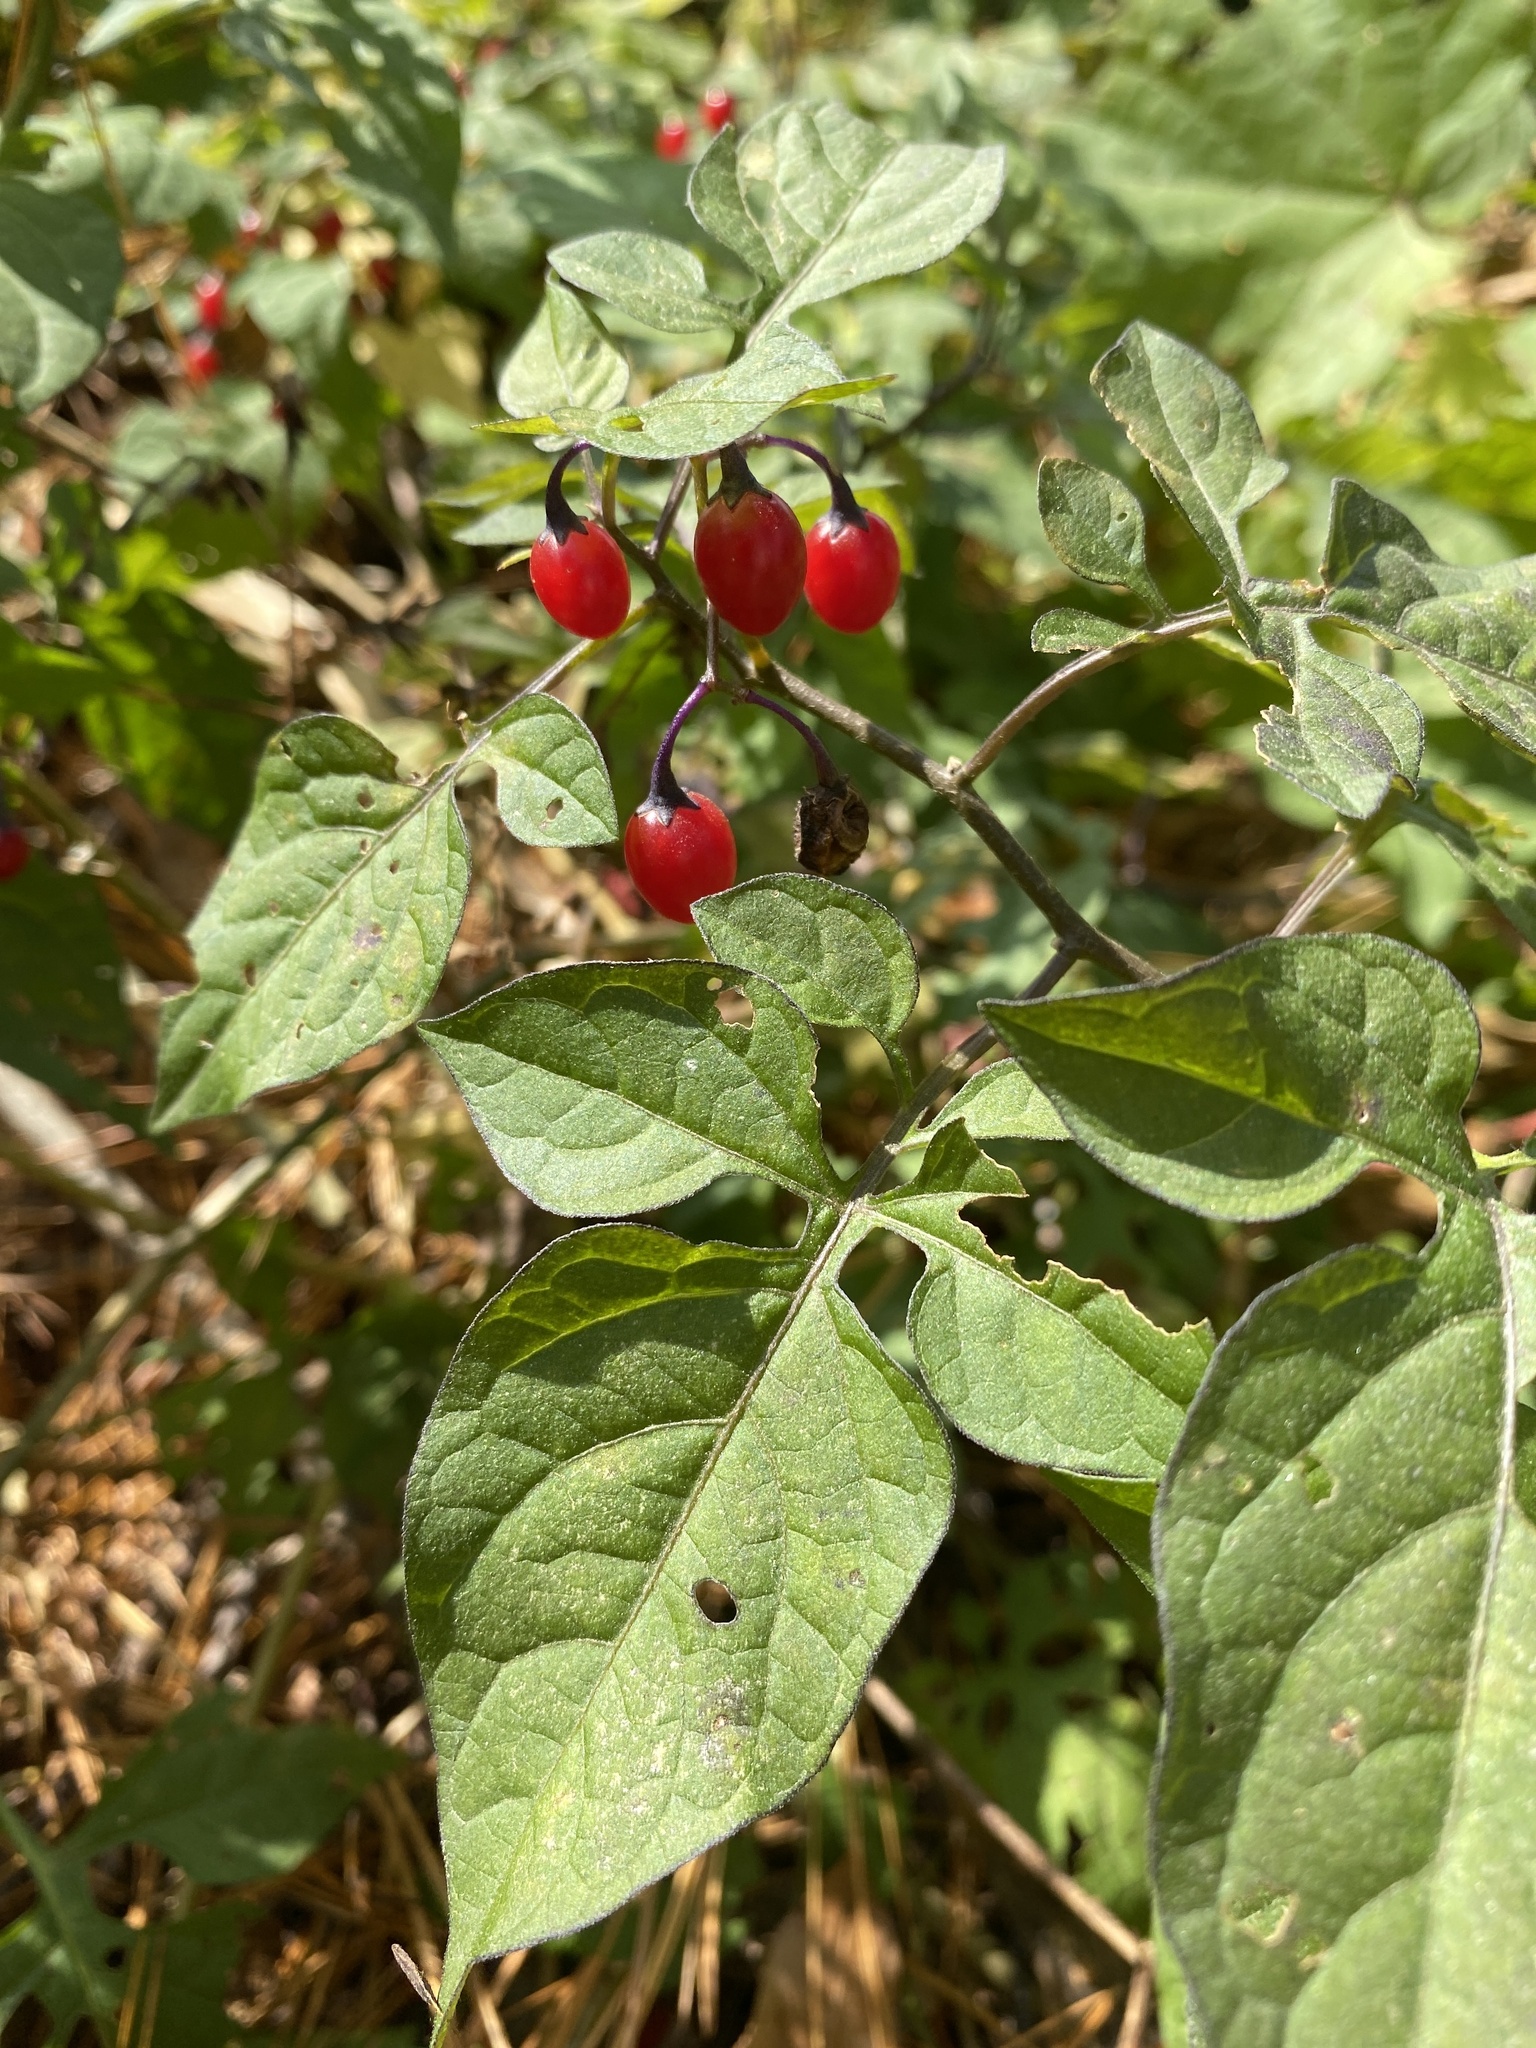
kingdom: Plantae
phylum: Tracheophyta
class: Magnoliopsida
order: Solanales
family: Solanaceae
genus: Solanum
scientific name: Solanum dulcamara
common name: Climbing nightshade
